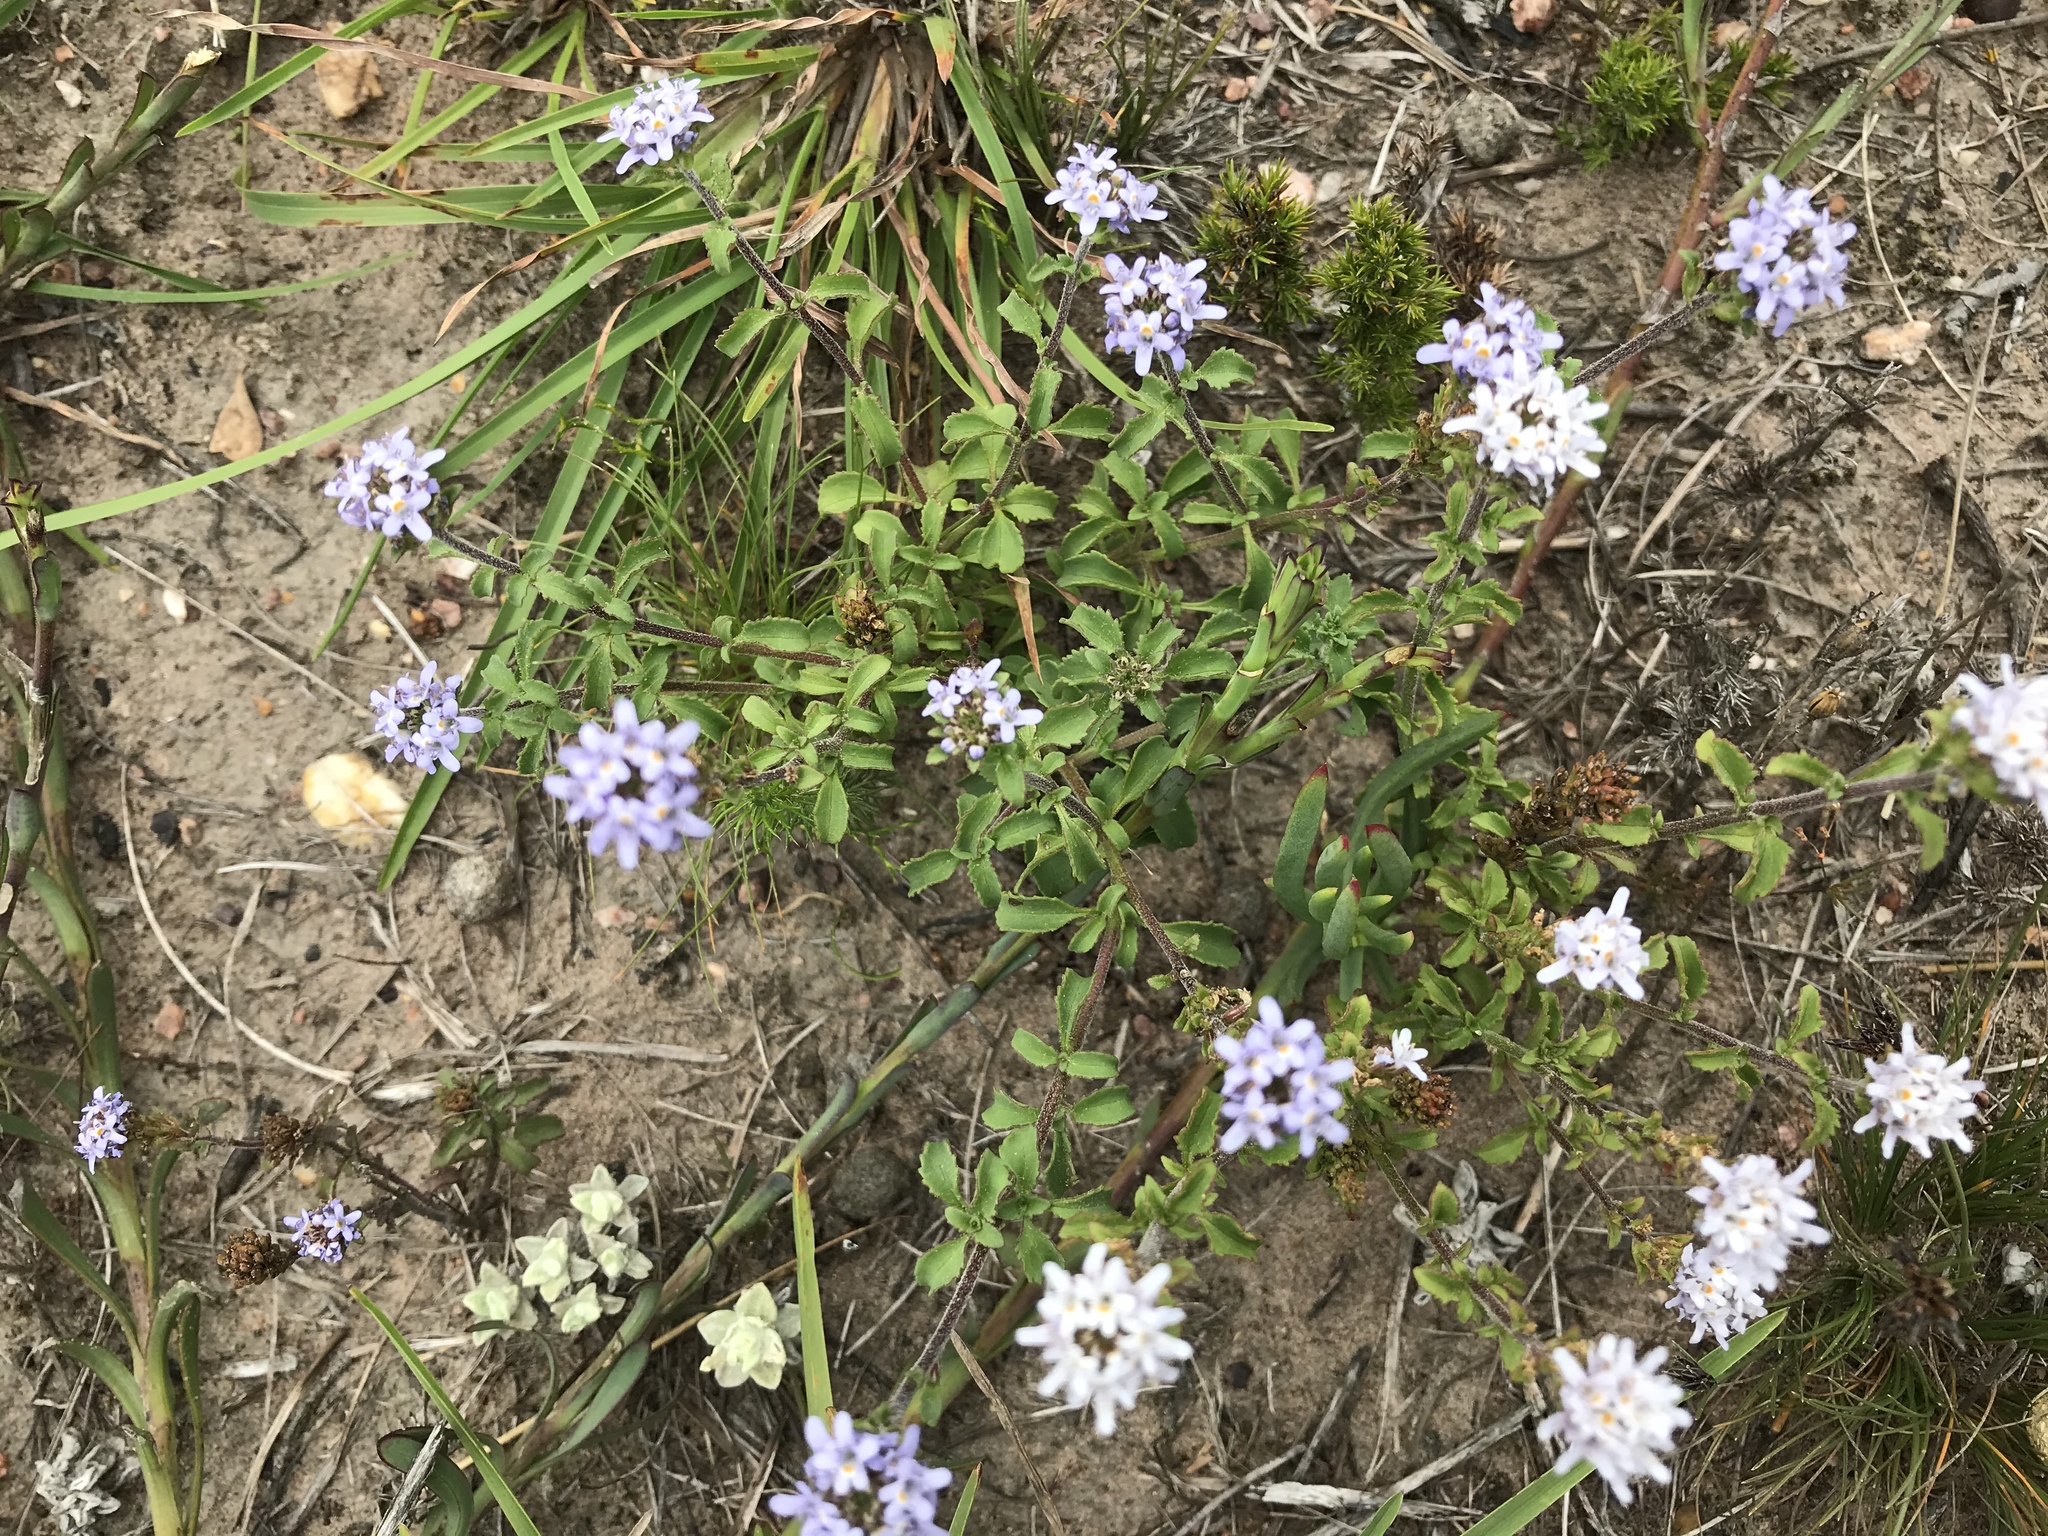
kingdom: Plantae
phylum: Tracheophyta
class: Magnoliopsida
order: Lamiales
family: Scrophulariaceae
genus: Phyllopodium
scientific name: Phyllopodium cuneifolium
